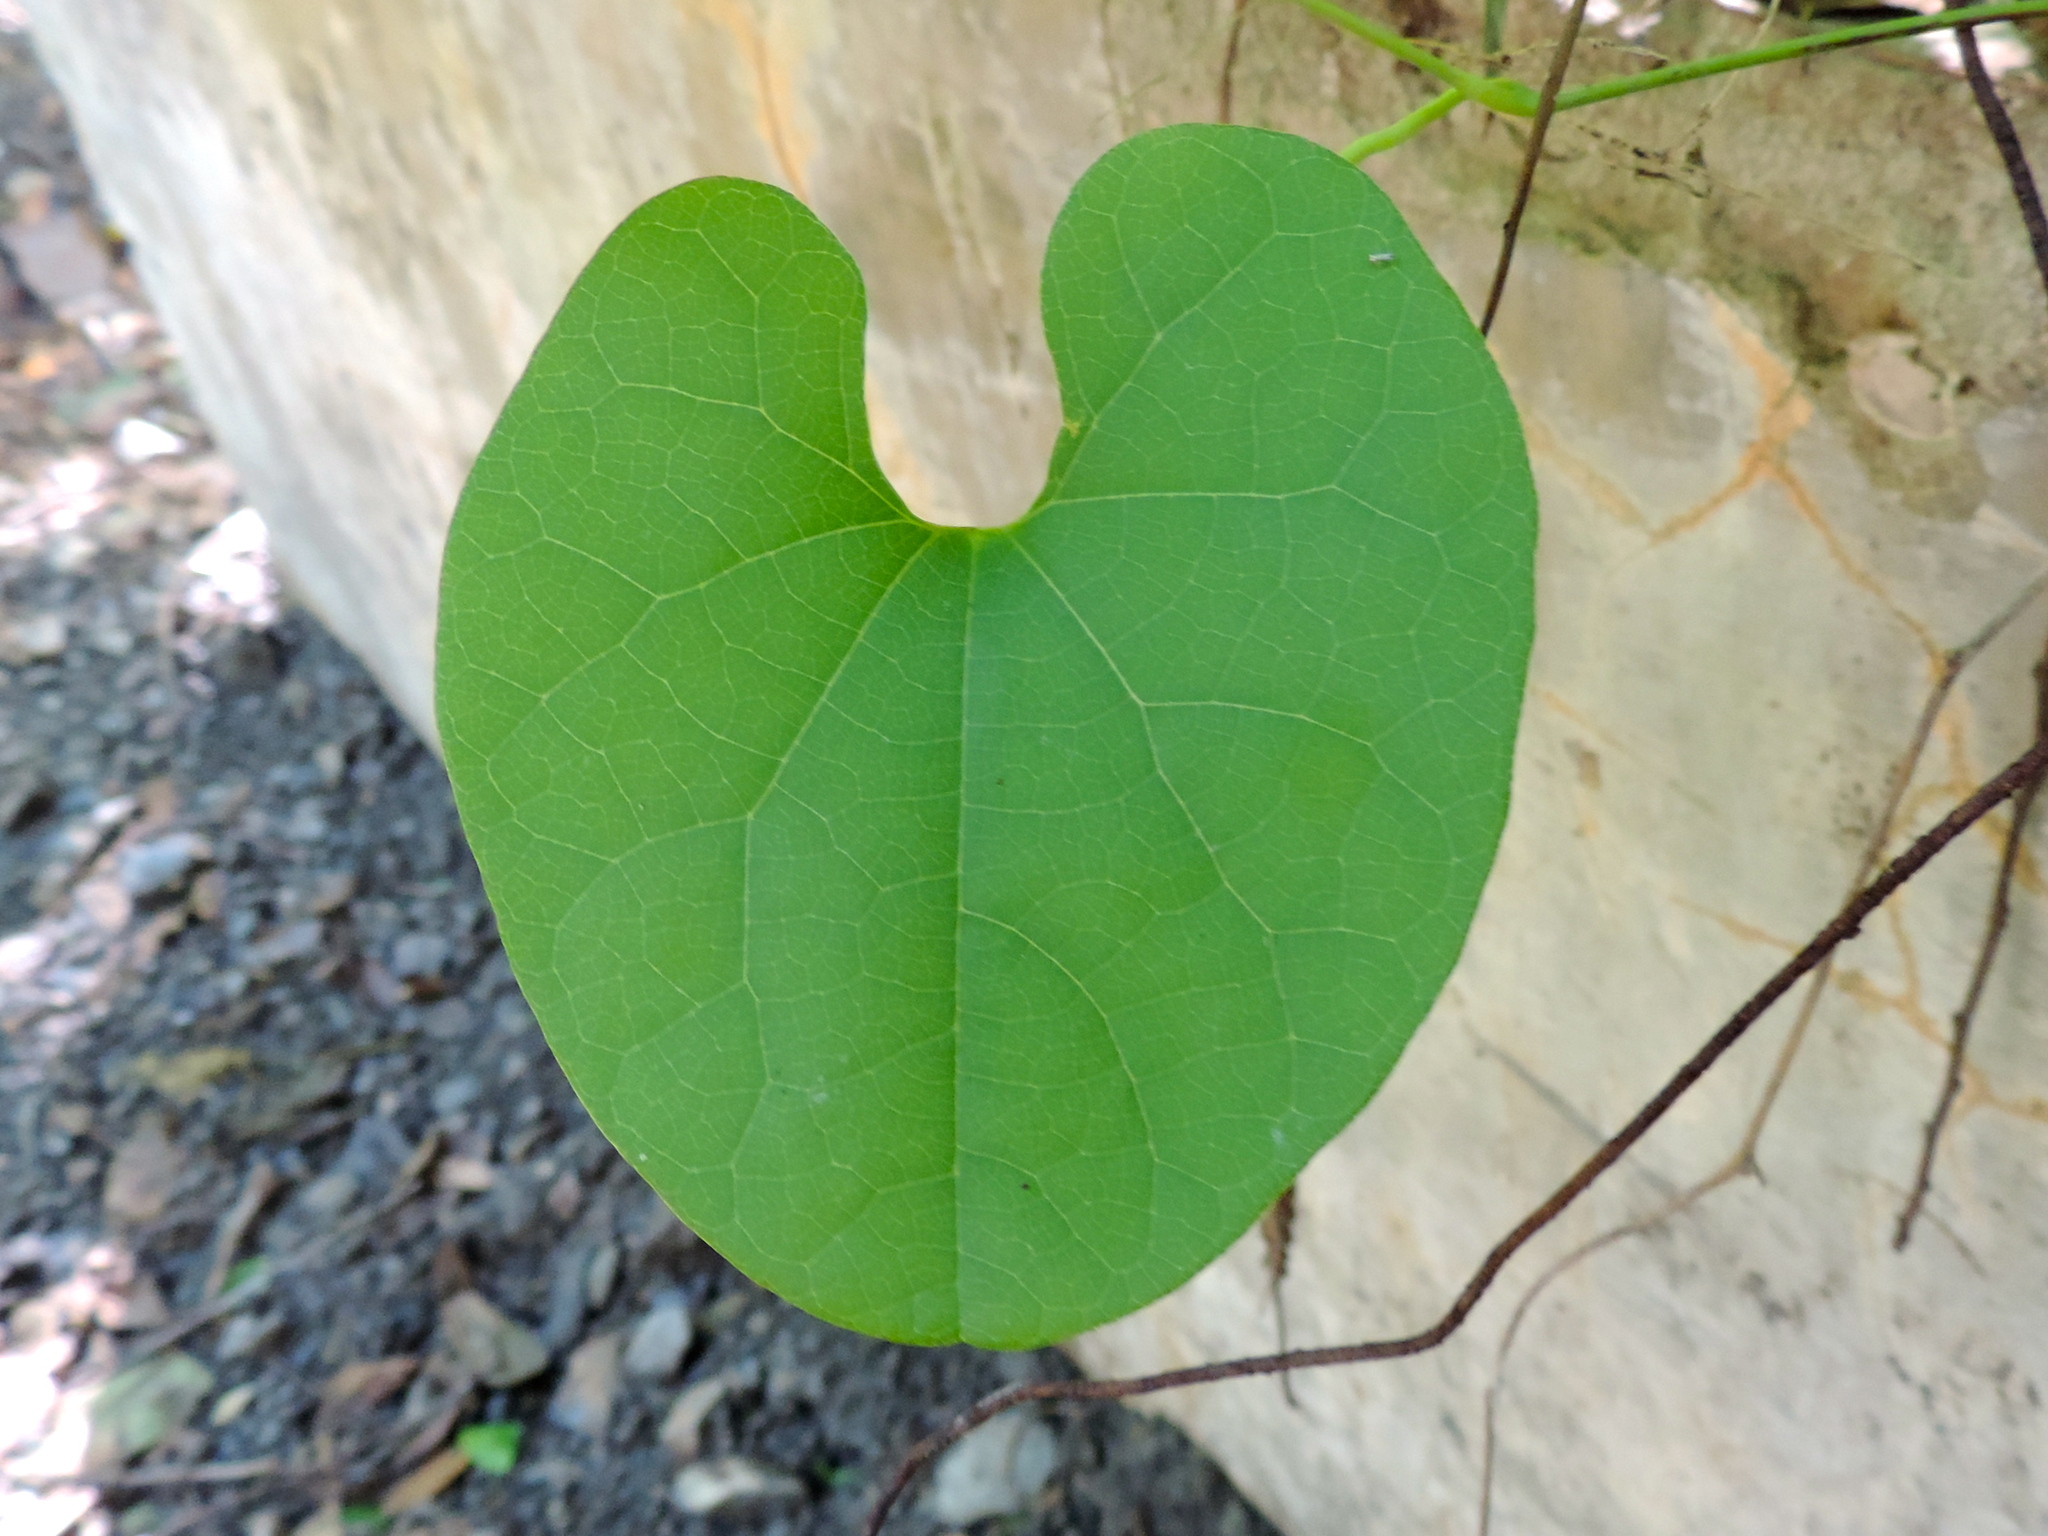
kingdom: Plantae
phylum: Tracheophyta
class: Magnoliopsida
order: Piperales
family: Aristolochiaceae
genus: Aristolochia
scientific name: Aristolochia taliscana
